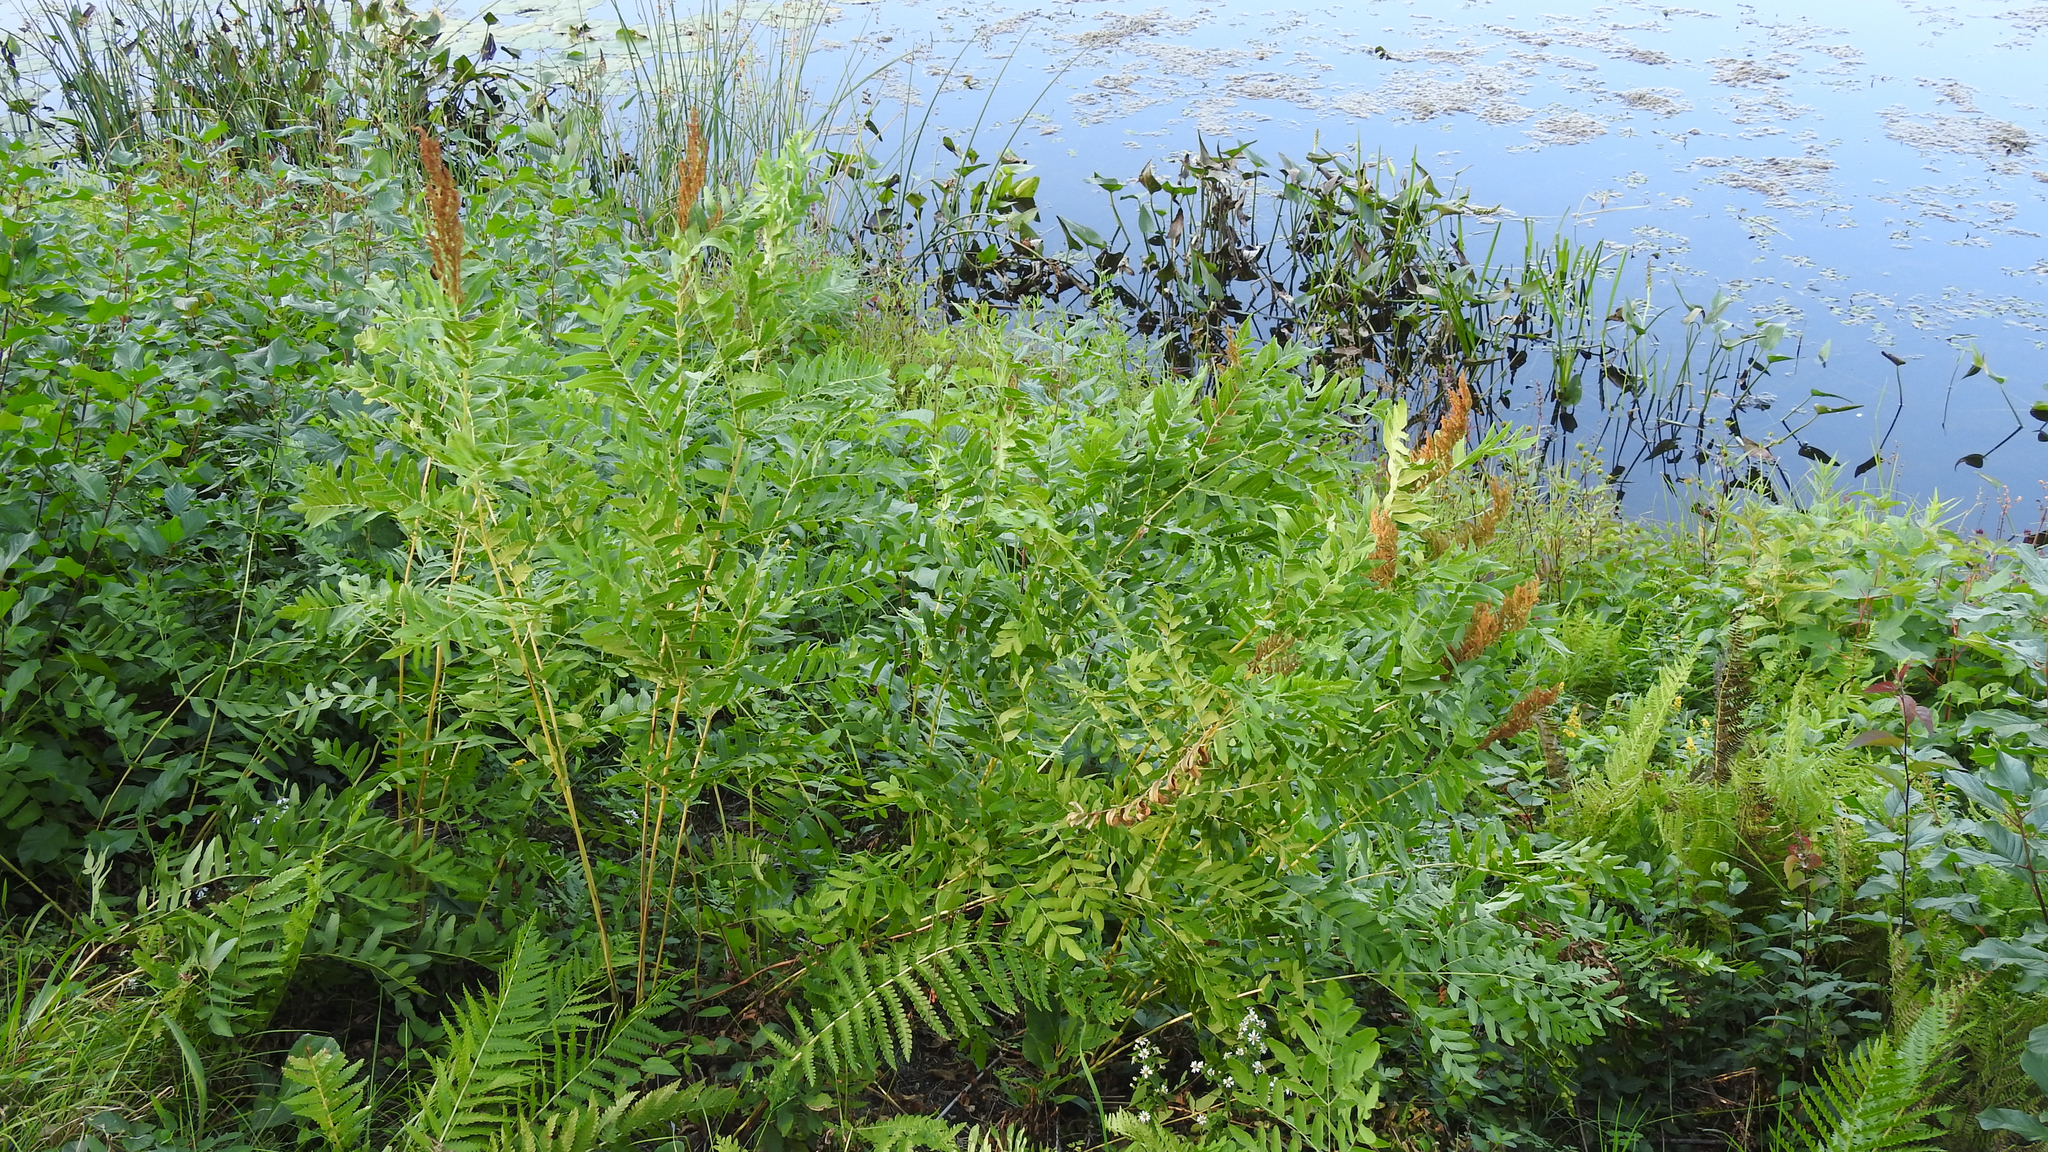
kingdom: Plantae
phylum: Tracheophyta
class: Polypodiopsida
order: Osmundales
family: Osmundaceae
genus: Osmunda
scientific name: Osmunda spectabilis
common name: American royal fern
